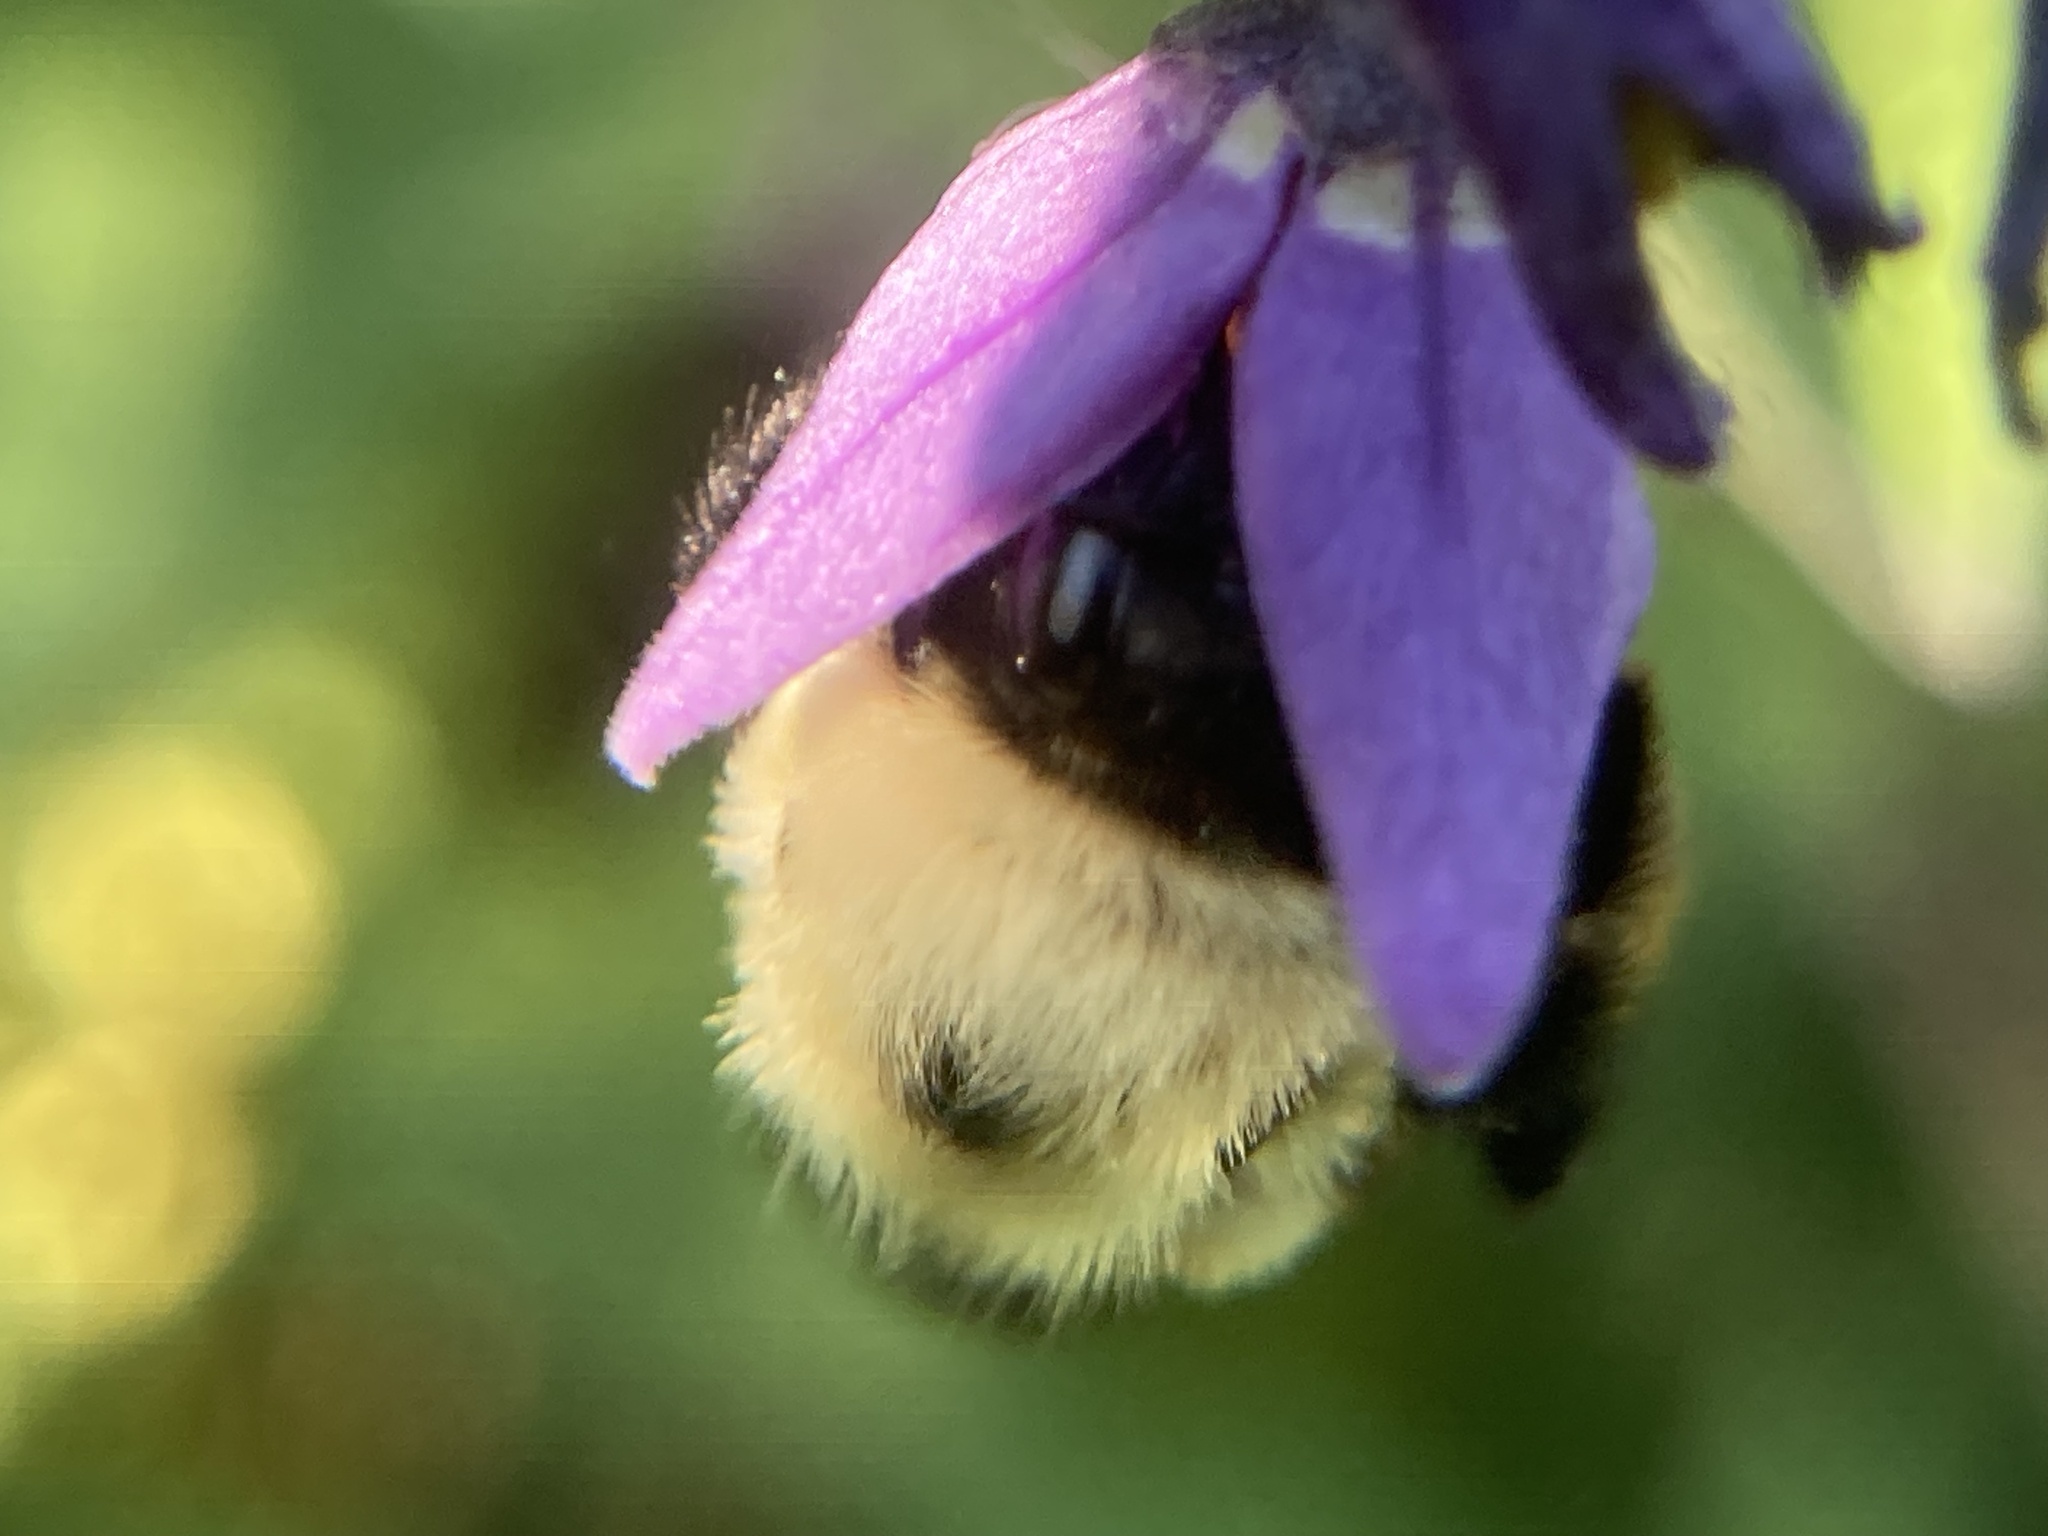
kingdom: Animalia
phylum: Arthropoda
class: Insecta
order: Hymenoptera
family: Apidae
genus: Bombus
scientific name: Bombus griseocollis
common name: Brown-belted bumble bee
